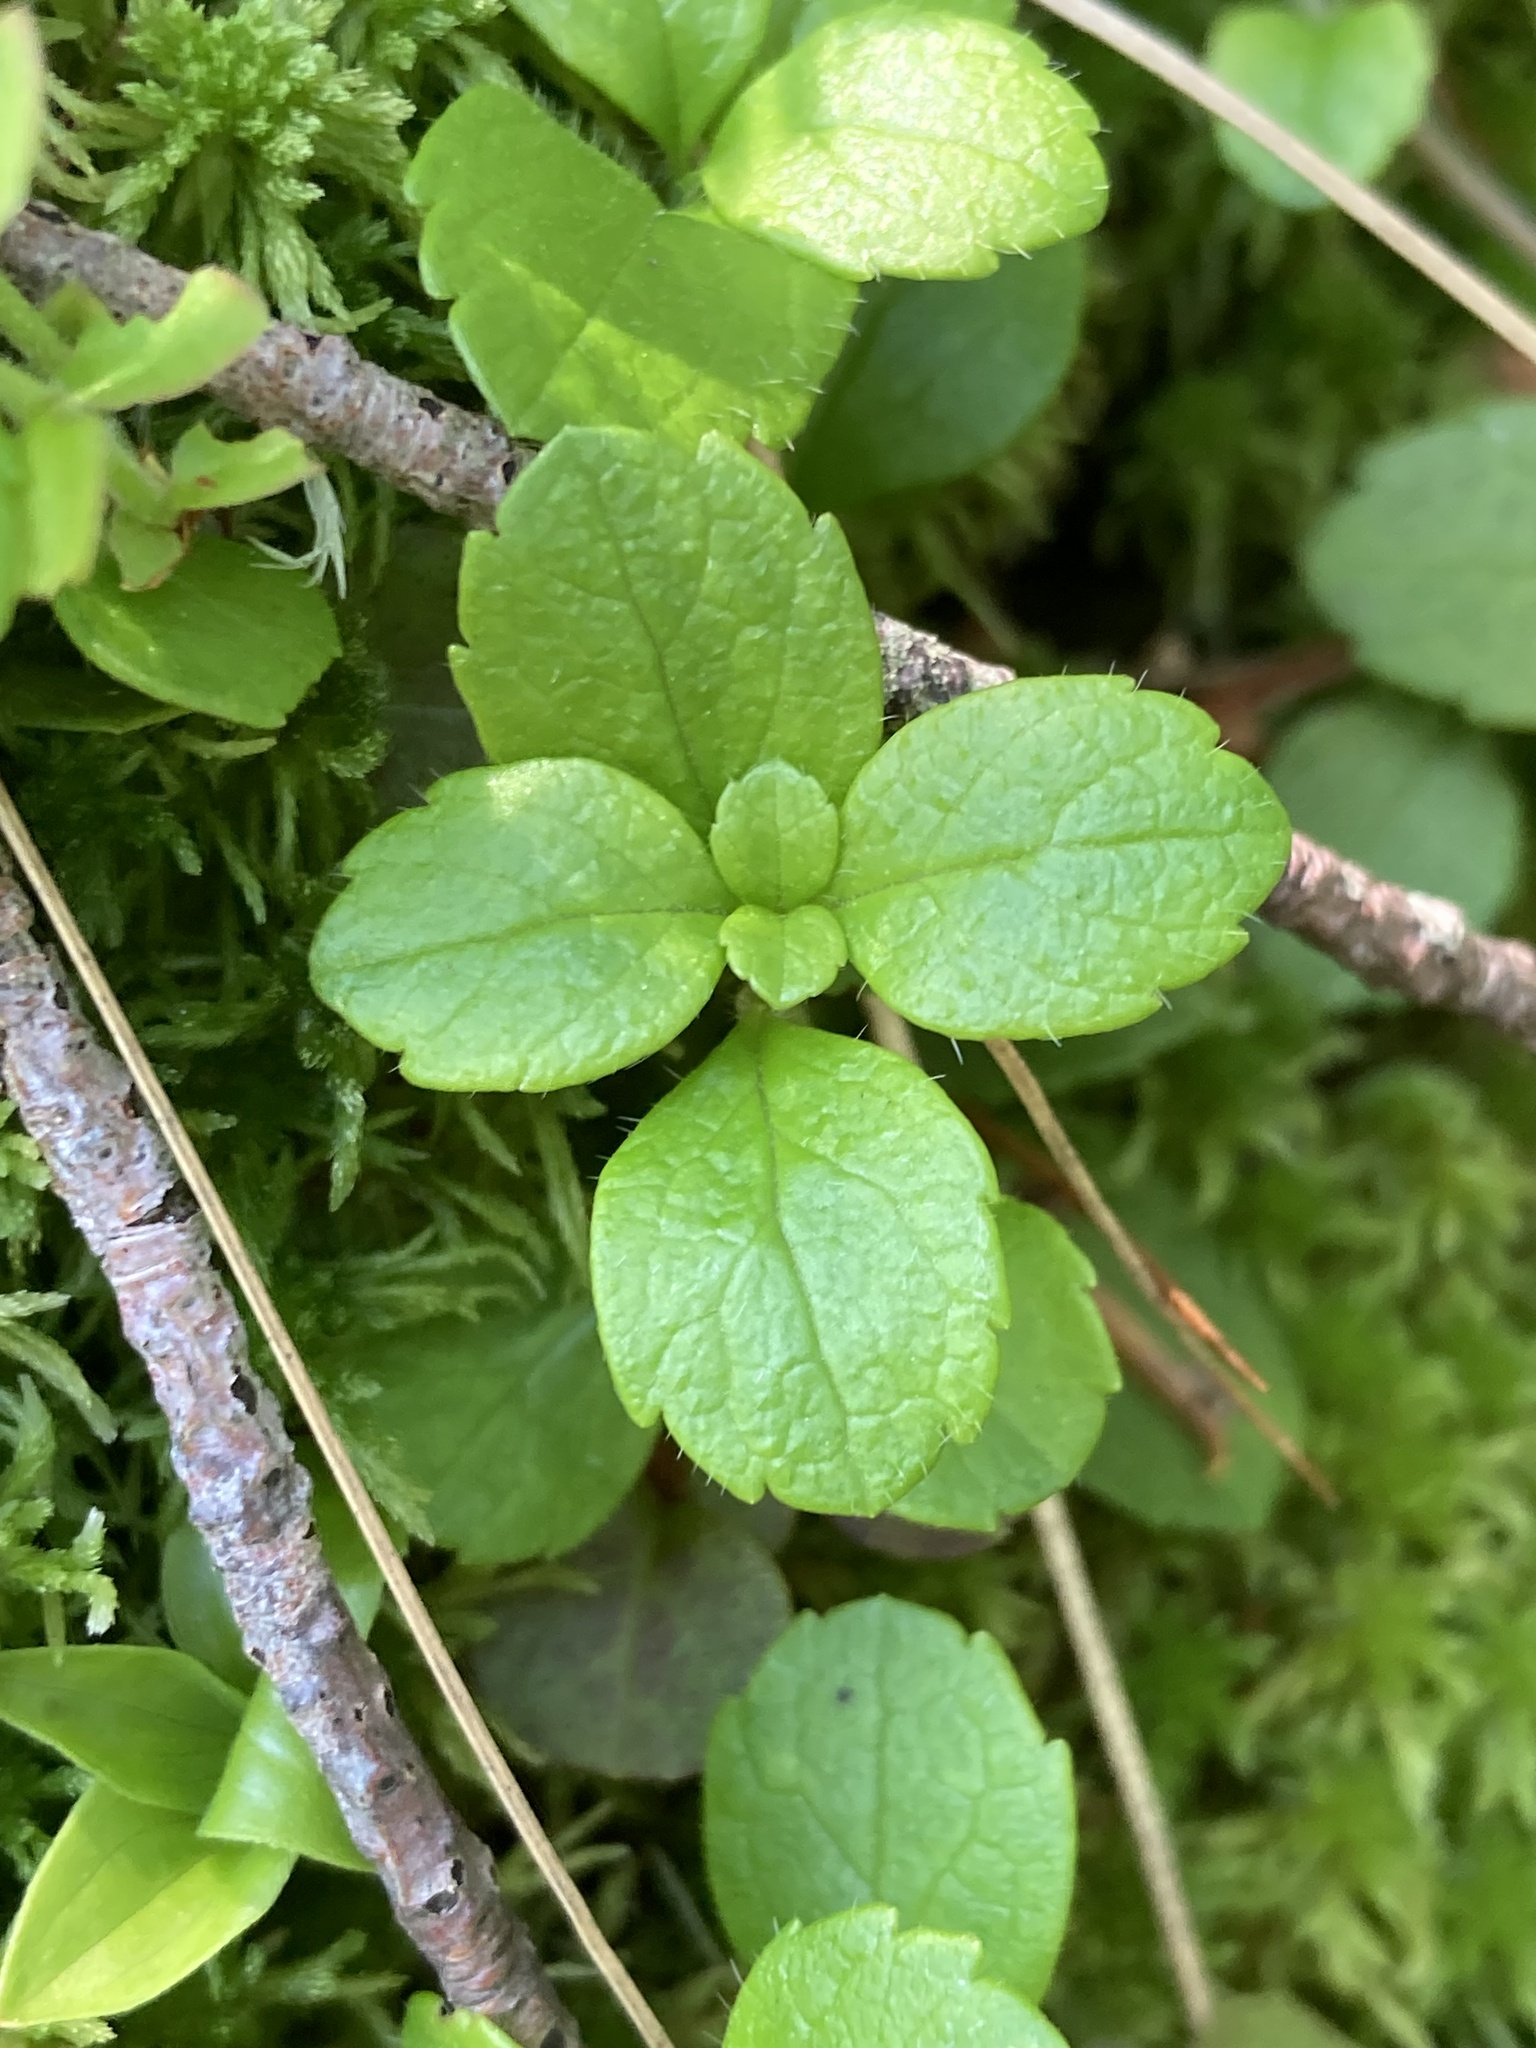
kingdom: Plantae
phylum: Tracheophyta
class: Magnoliopsida
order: Dipsacales
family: Caprifoliaceae
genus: Linnaea
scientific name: Linnaea borealis
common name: Twinflower
